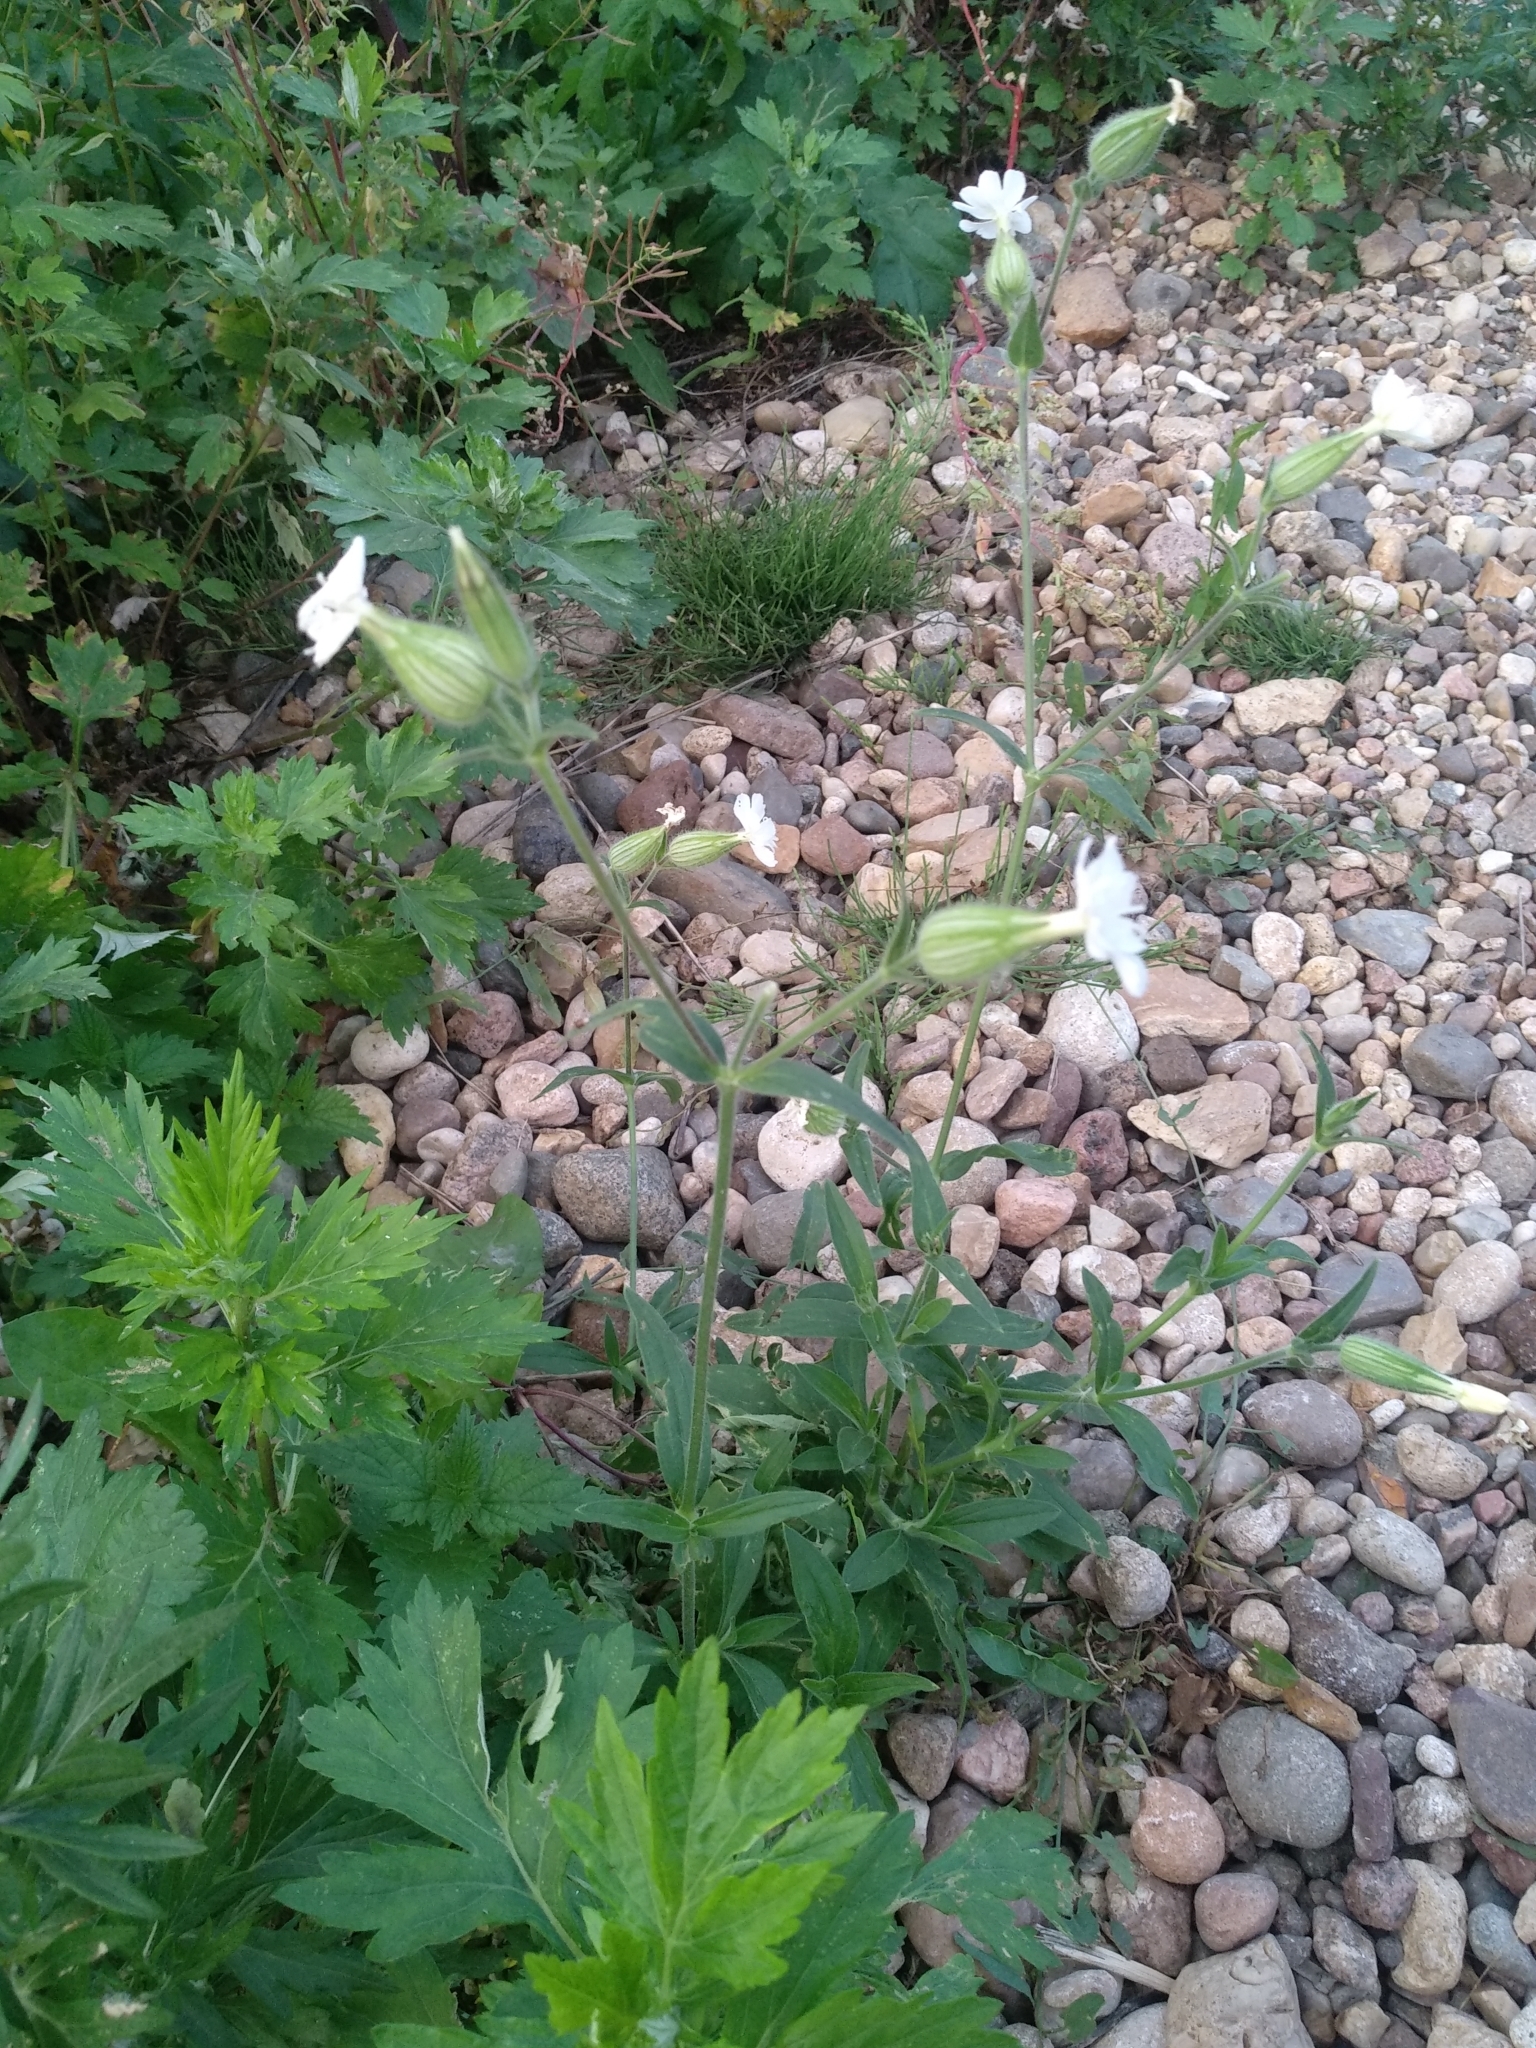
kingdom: Plantae
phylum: Tracheophyta
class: Magnoliopsida
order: Caryophyllales
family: Caryophyllaceae
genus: Silene
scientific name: Silene latifolia
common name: White campion
